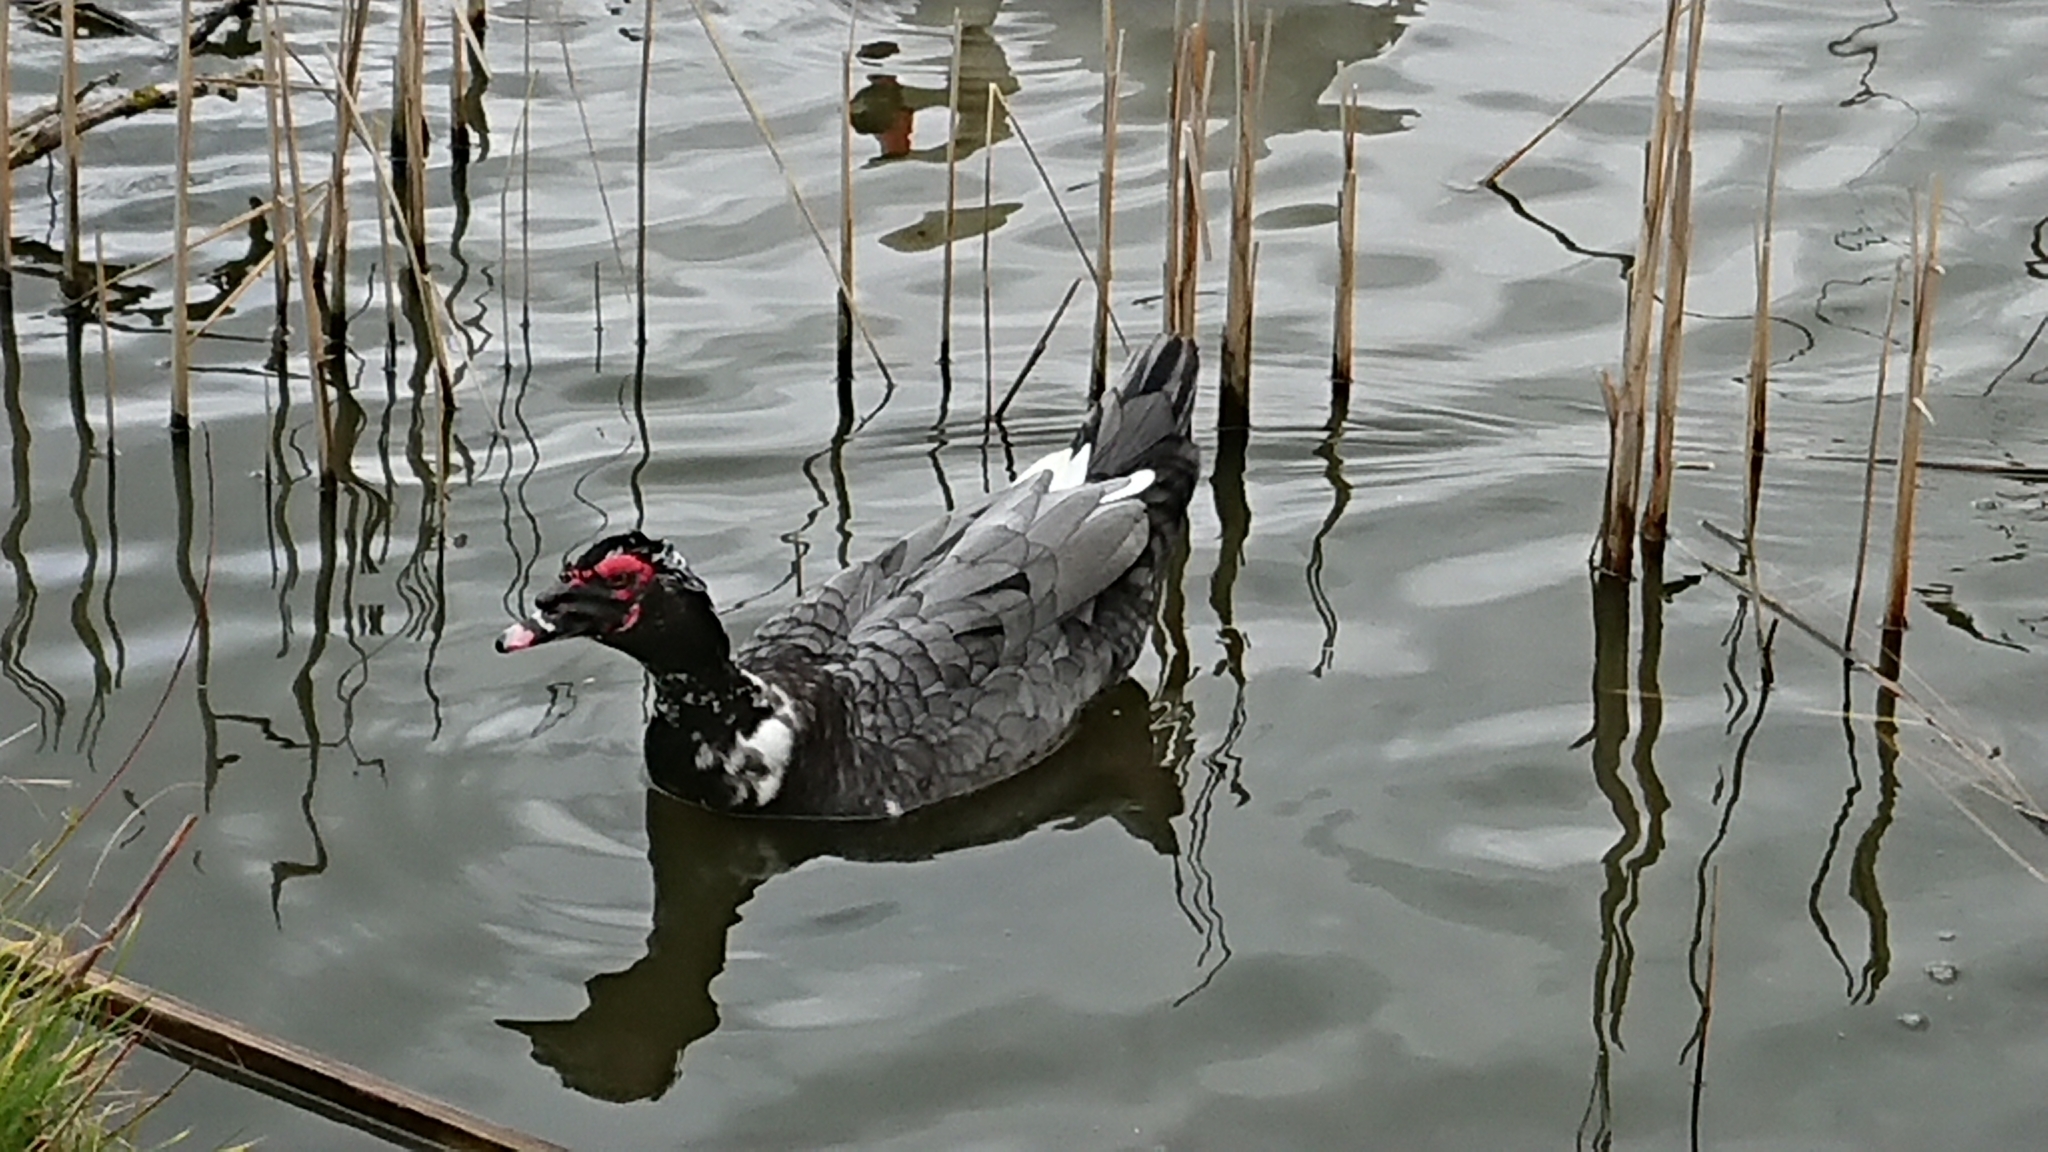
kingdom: Animalia
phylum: Chordata
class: Aves
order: Anseriformes
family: Anatidae
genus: Cairina
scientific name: Cairina moschata
